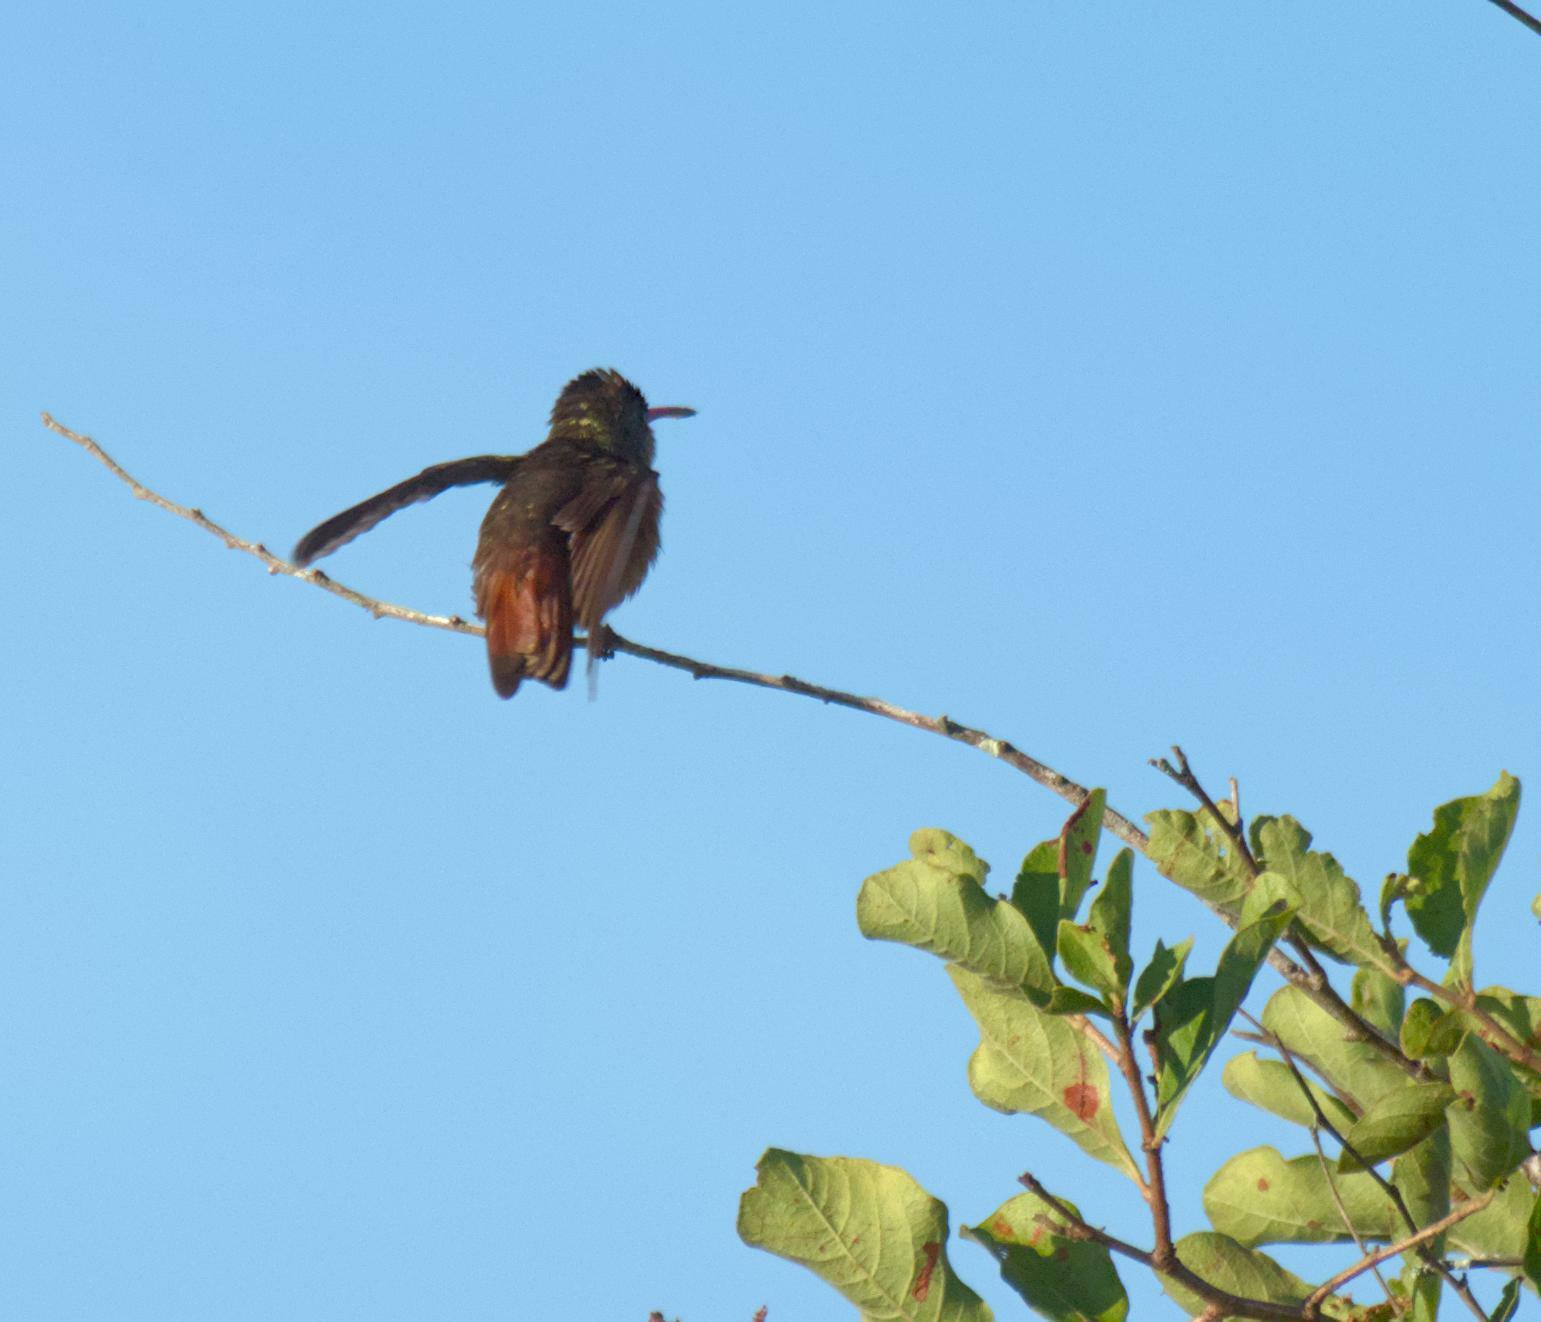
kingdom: Animalia
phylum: Chordata
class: Aves
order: Apodiformes
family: Trochilidae
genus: Amazilia
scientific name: Amazilia rutila
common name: Cinnamon hummingbird
